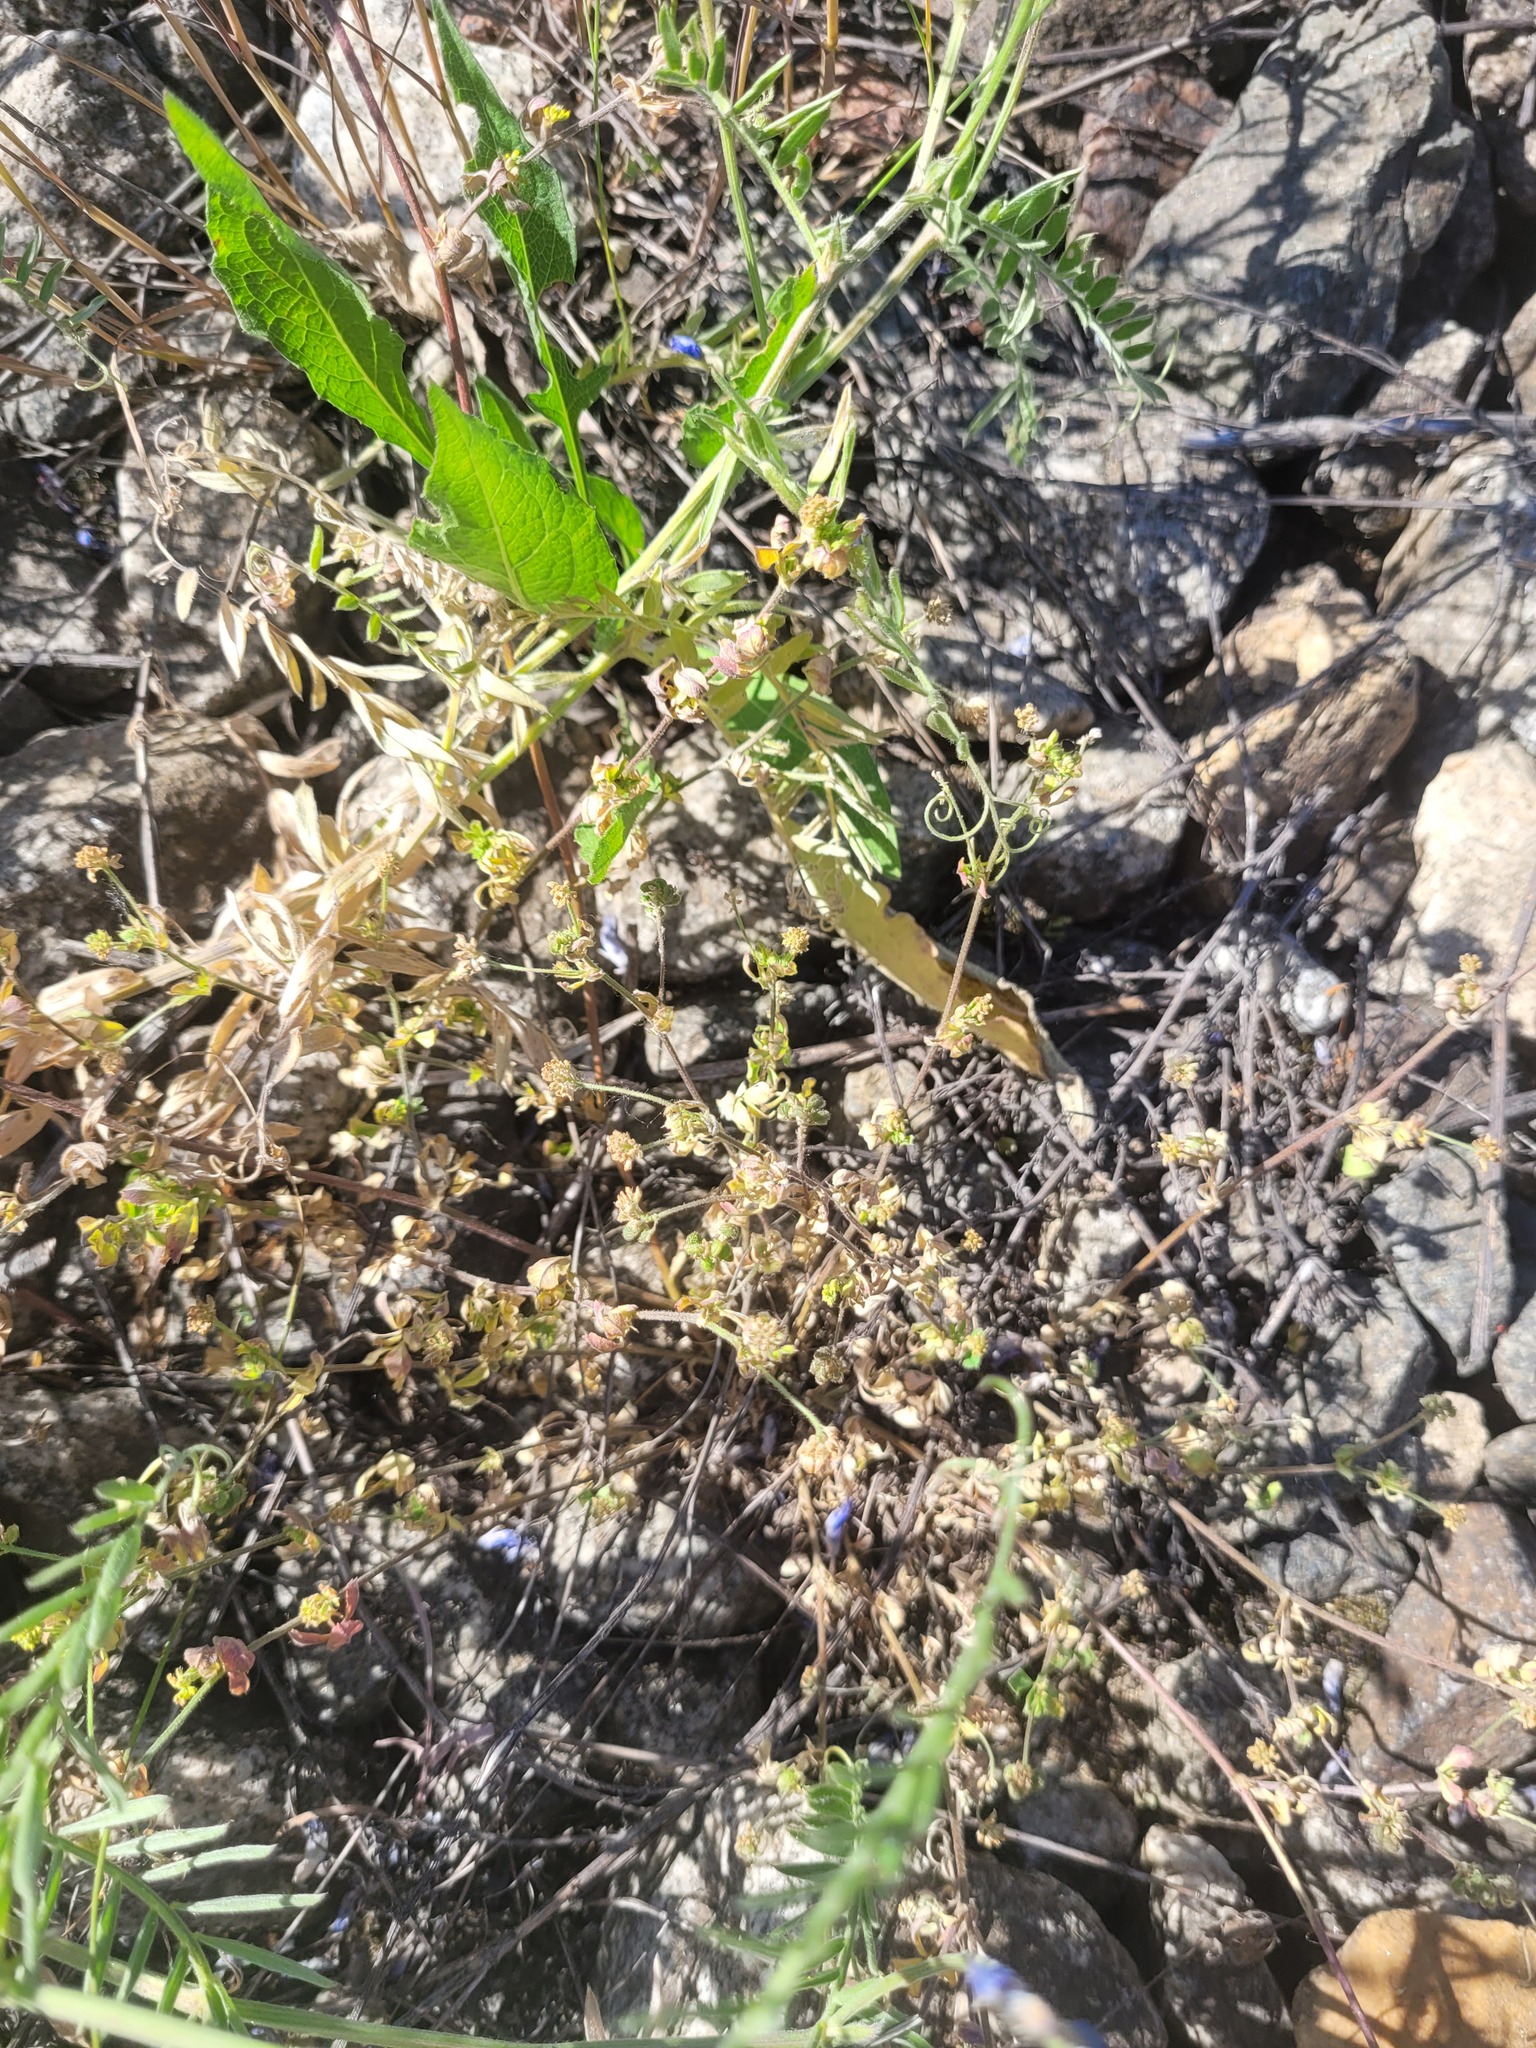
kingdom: Plantae
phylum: Tracheophyta
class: Magnoliopsida
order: Fabales
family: Fabaceae
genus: Medicago
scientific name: Medicago lupulina
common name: Black medick
